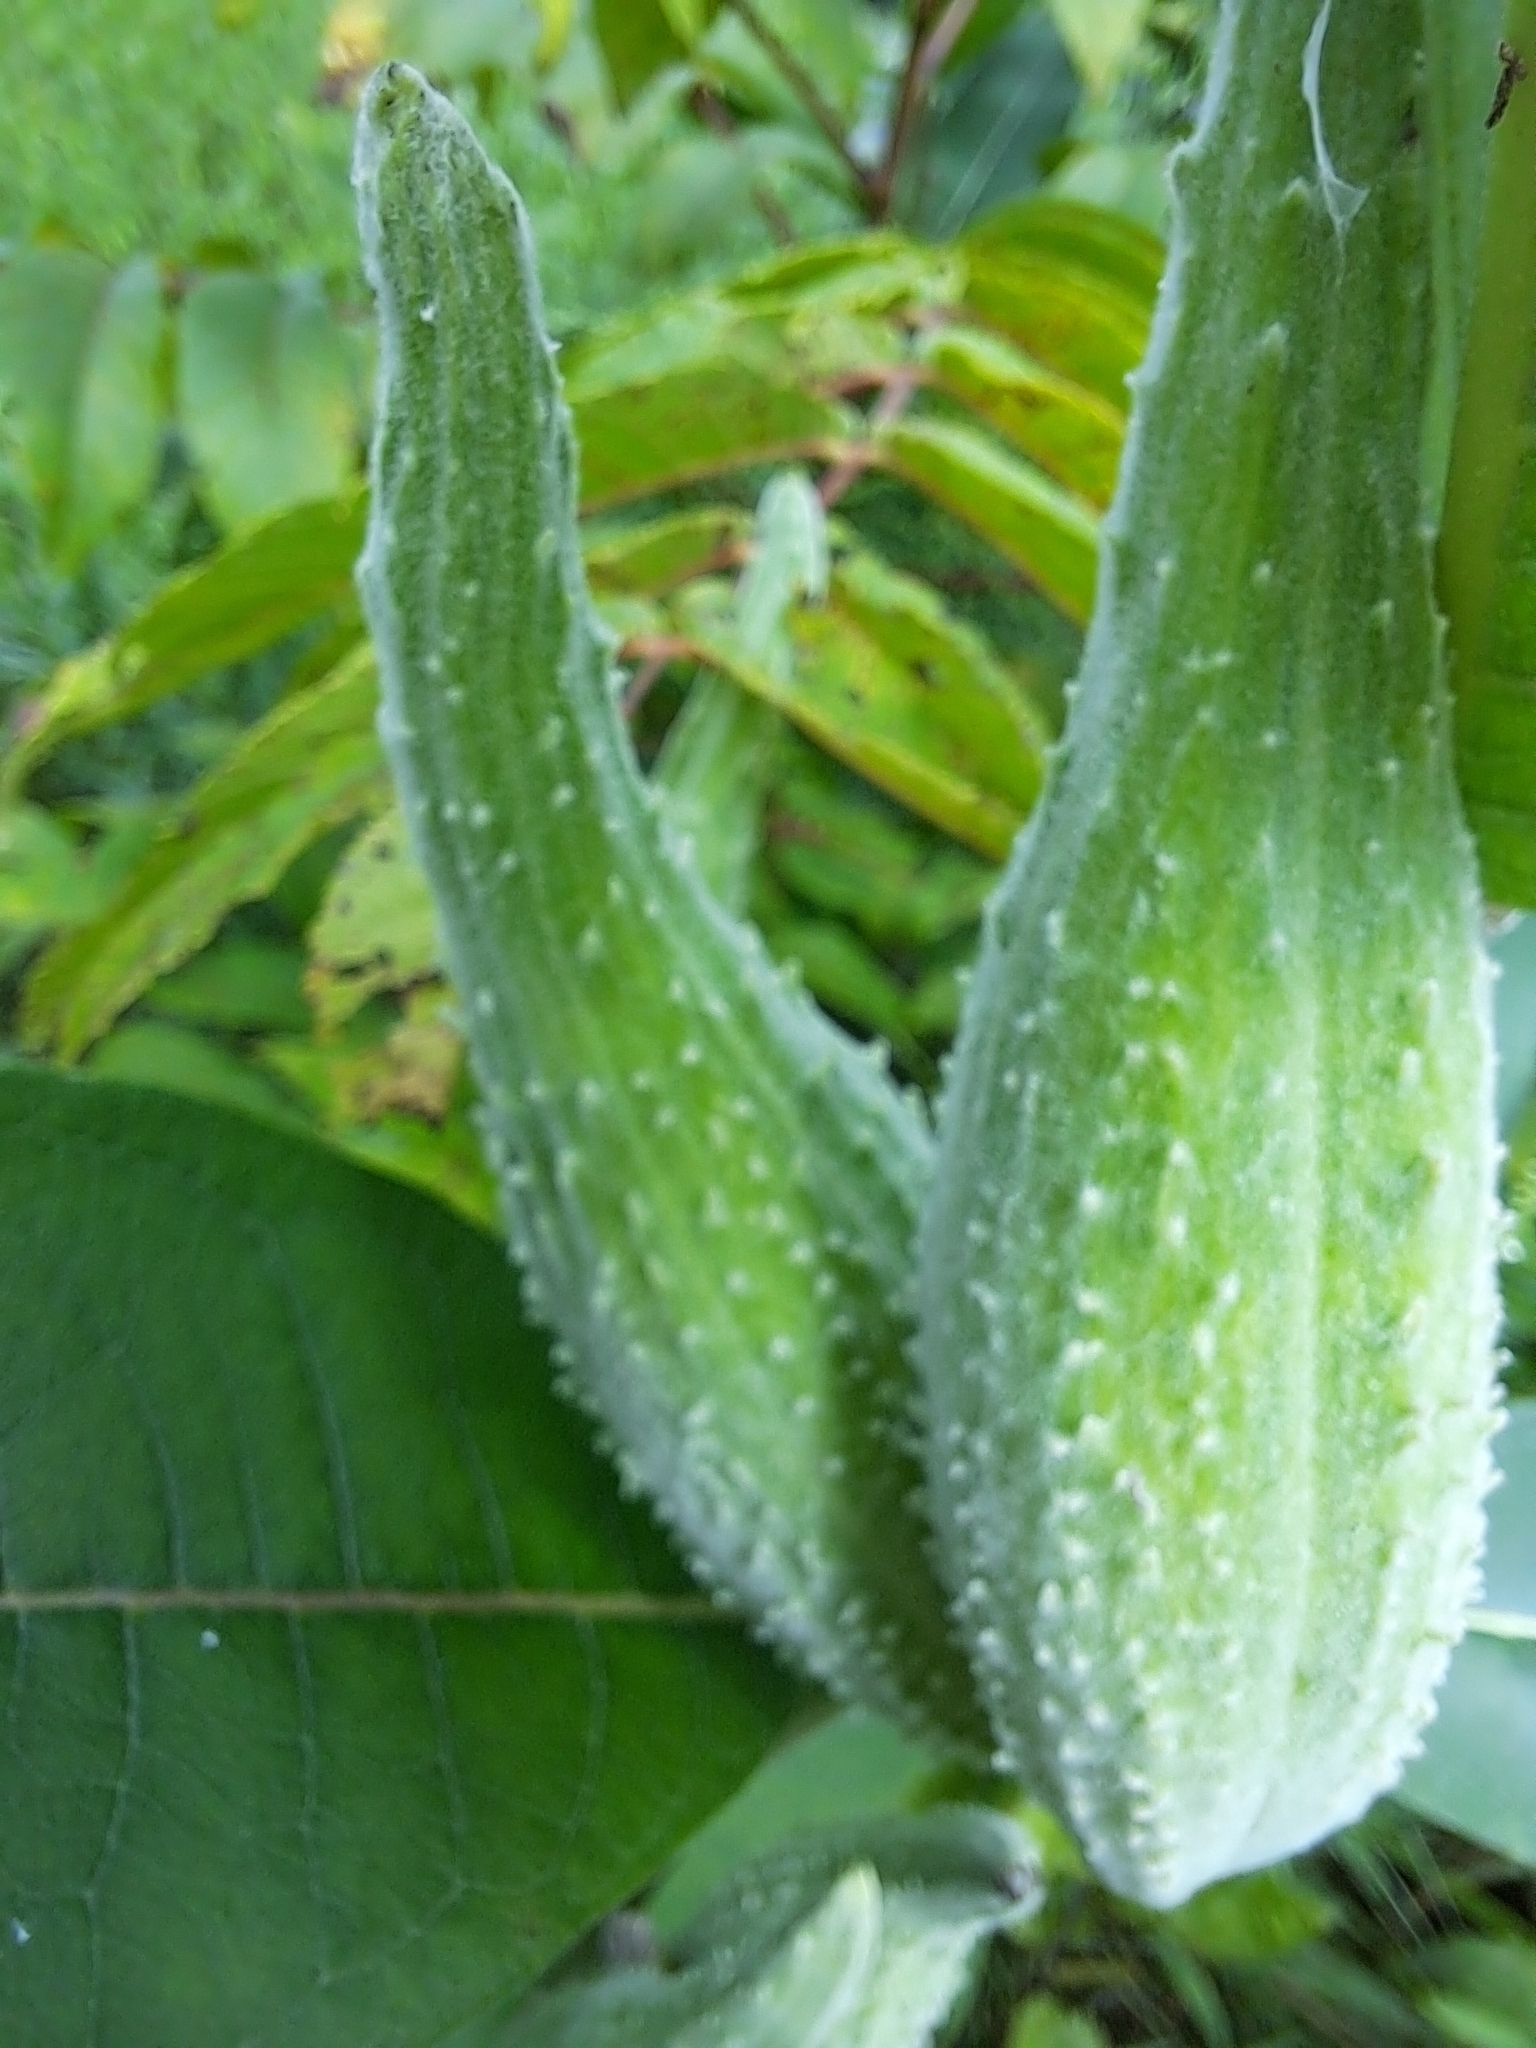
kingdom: Plantae
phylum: Tracheophyta
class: Magnoliopsida
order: Gentianales
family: Apocynaceae
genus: Asclepias
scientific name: Asclepias syriaca
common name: Common milkweed
